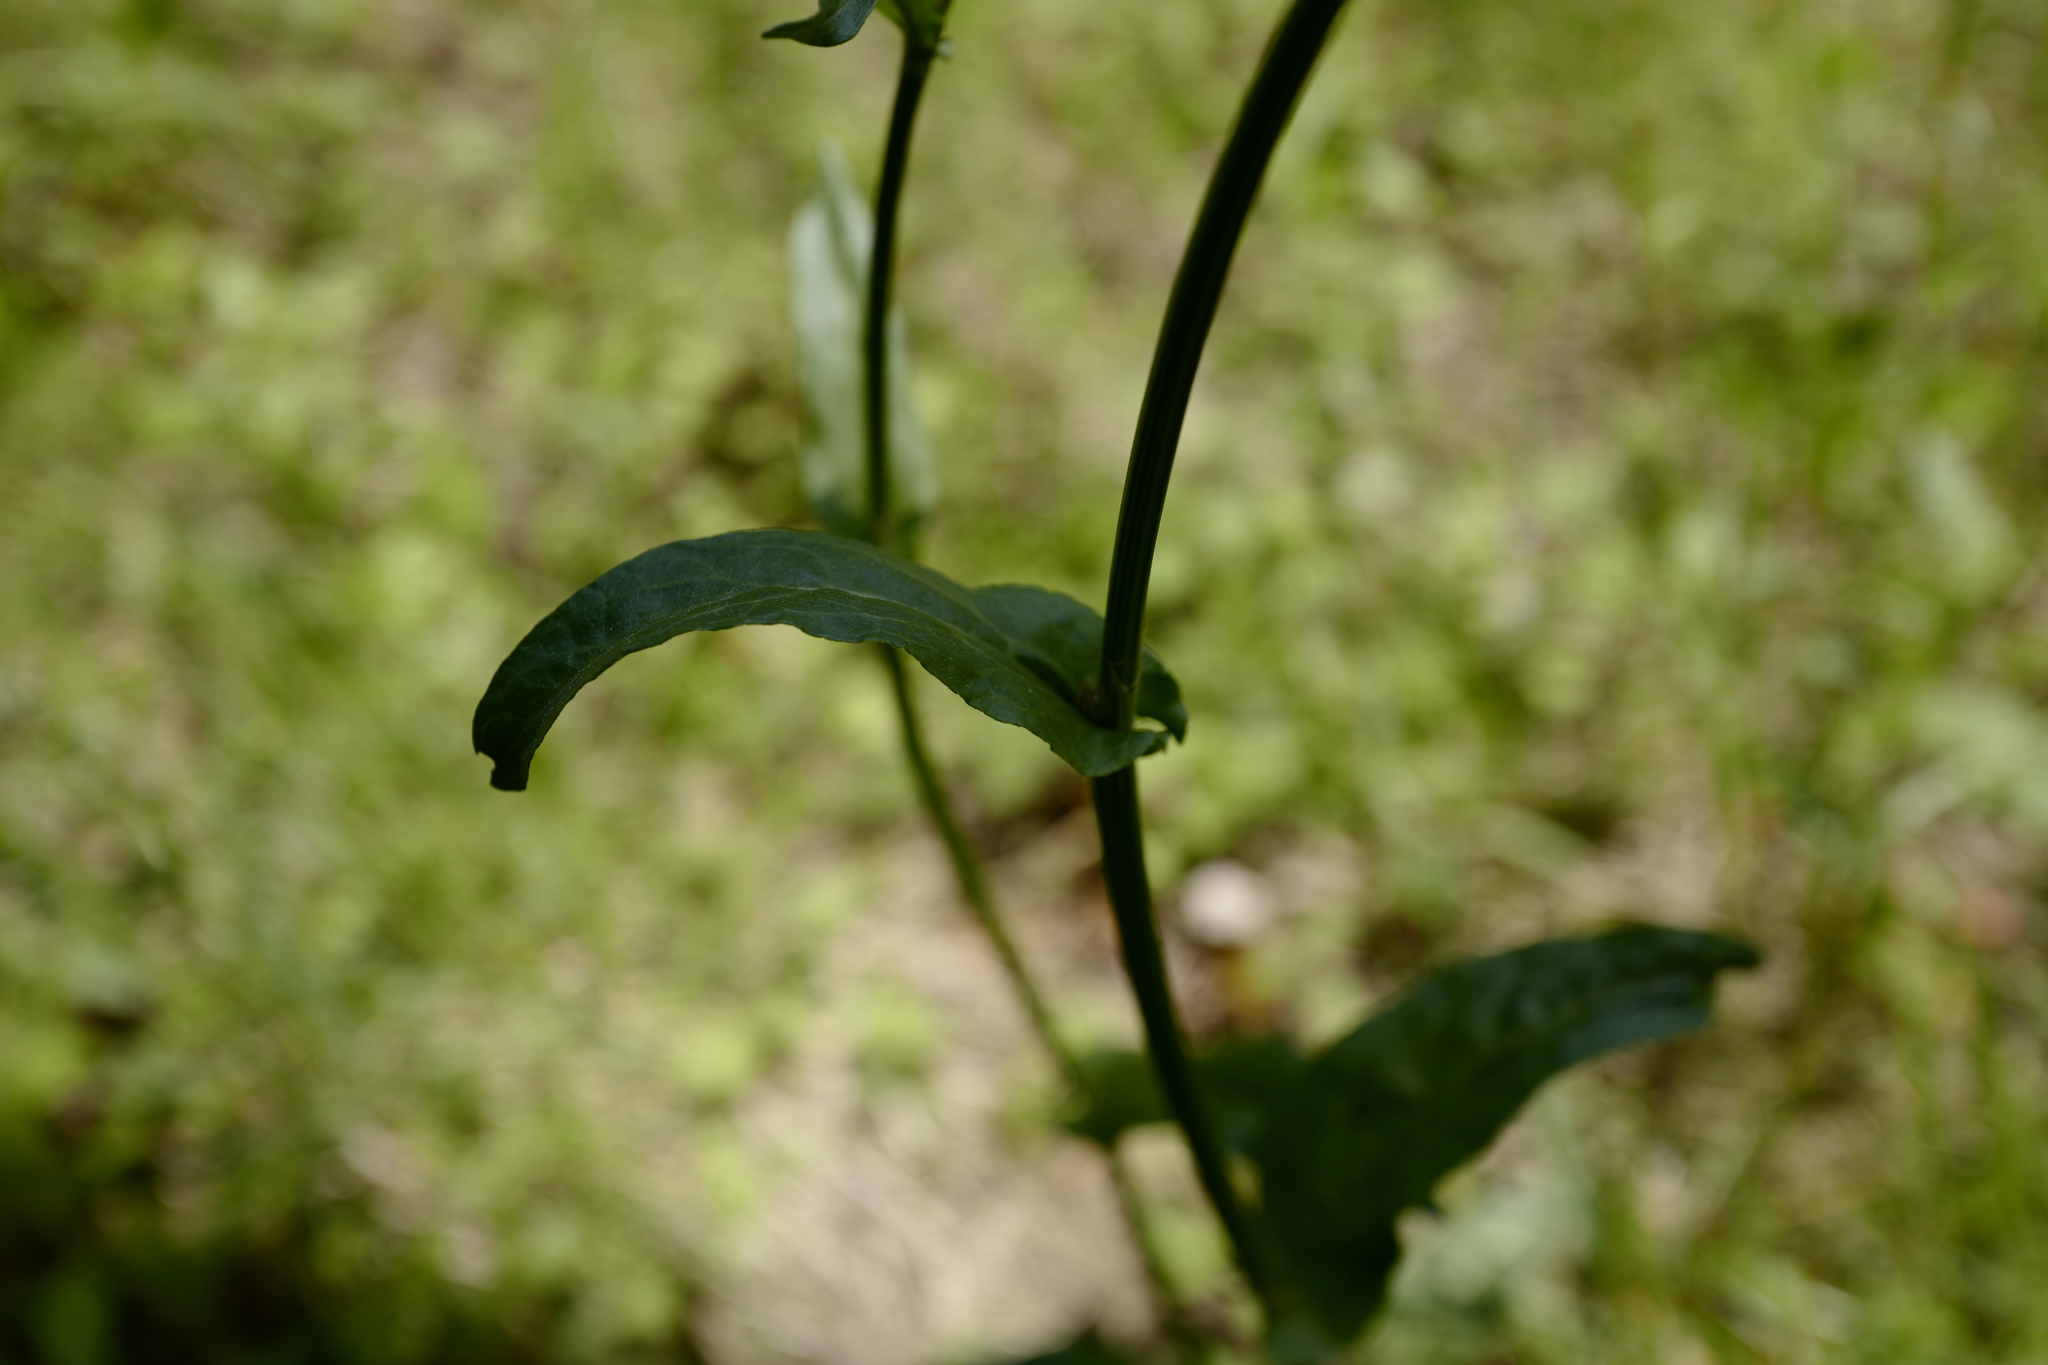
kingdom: Plantae
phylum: Tracheophyta
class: Magnoliopsida
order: Caryophyllales
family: Polygonaceae
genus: Rumex
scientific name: Rumex acetosa
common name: Garden sorrel
